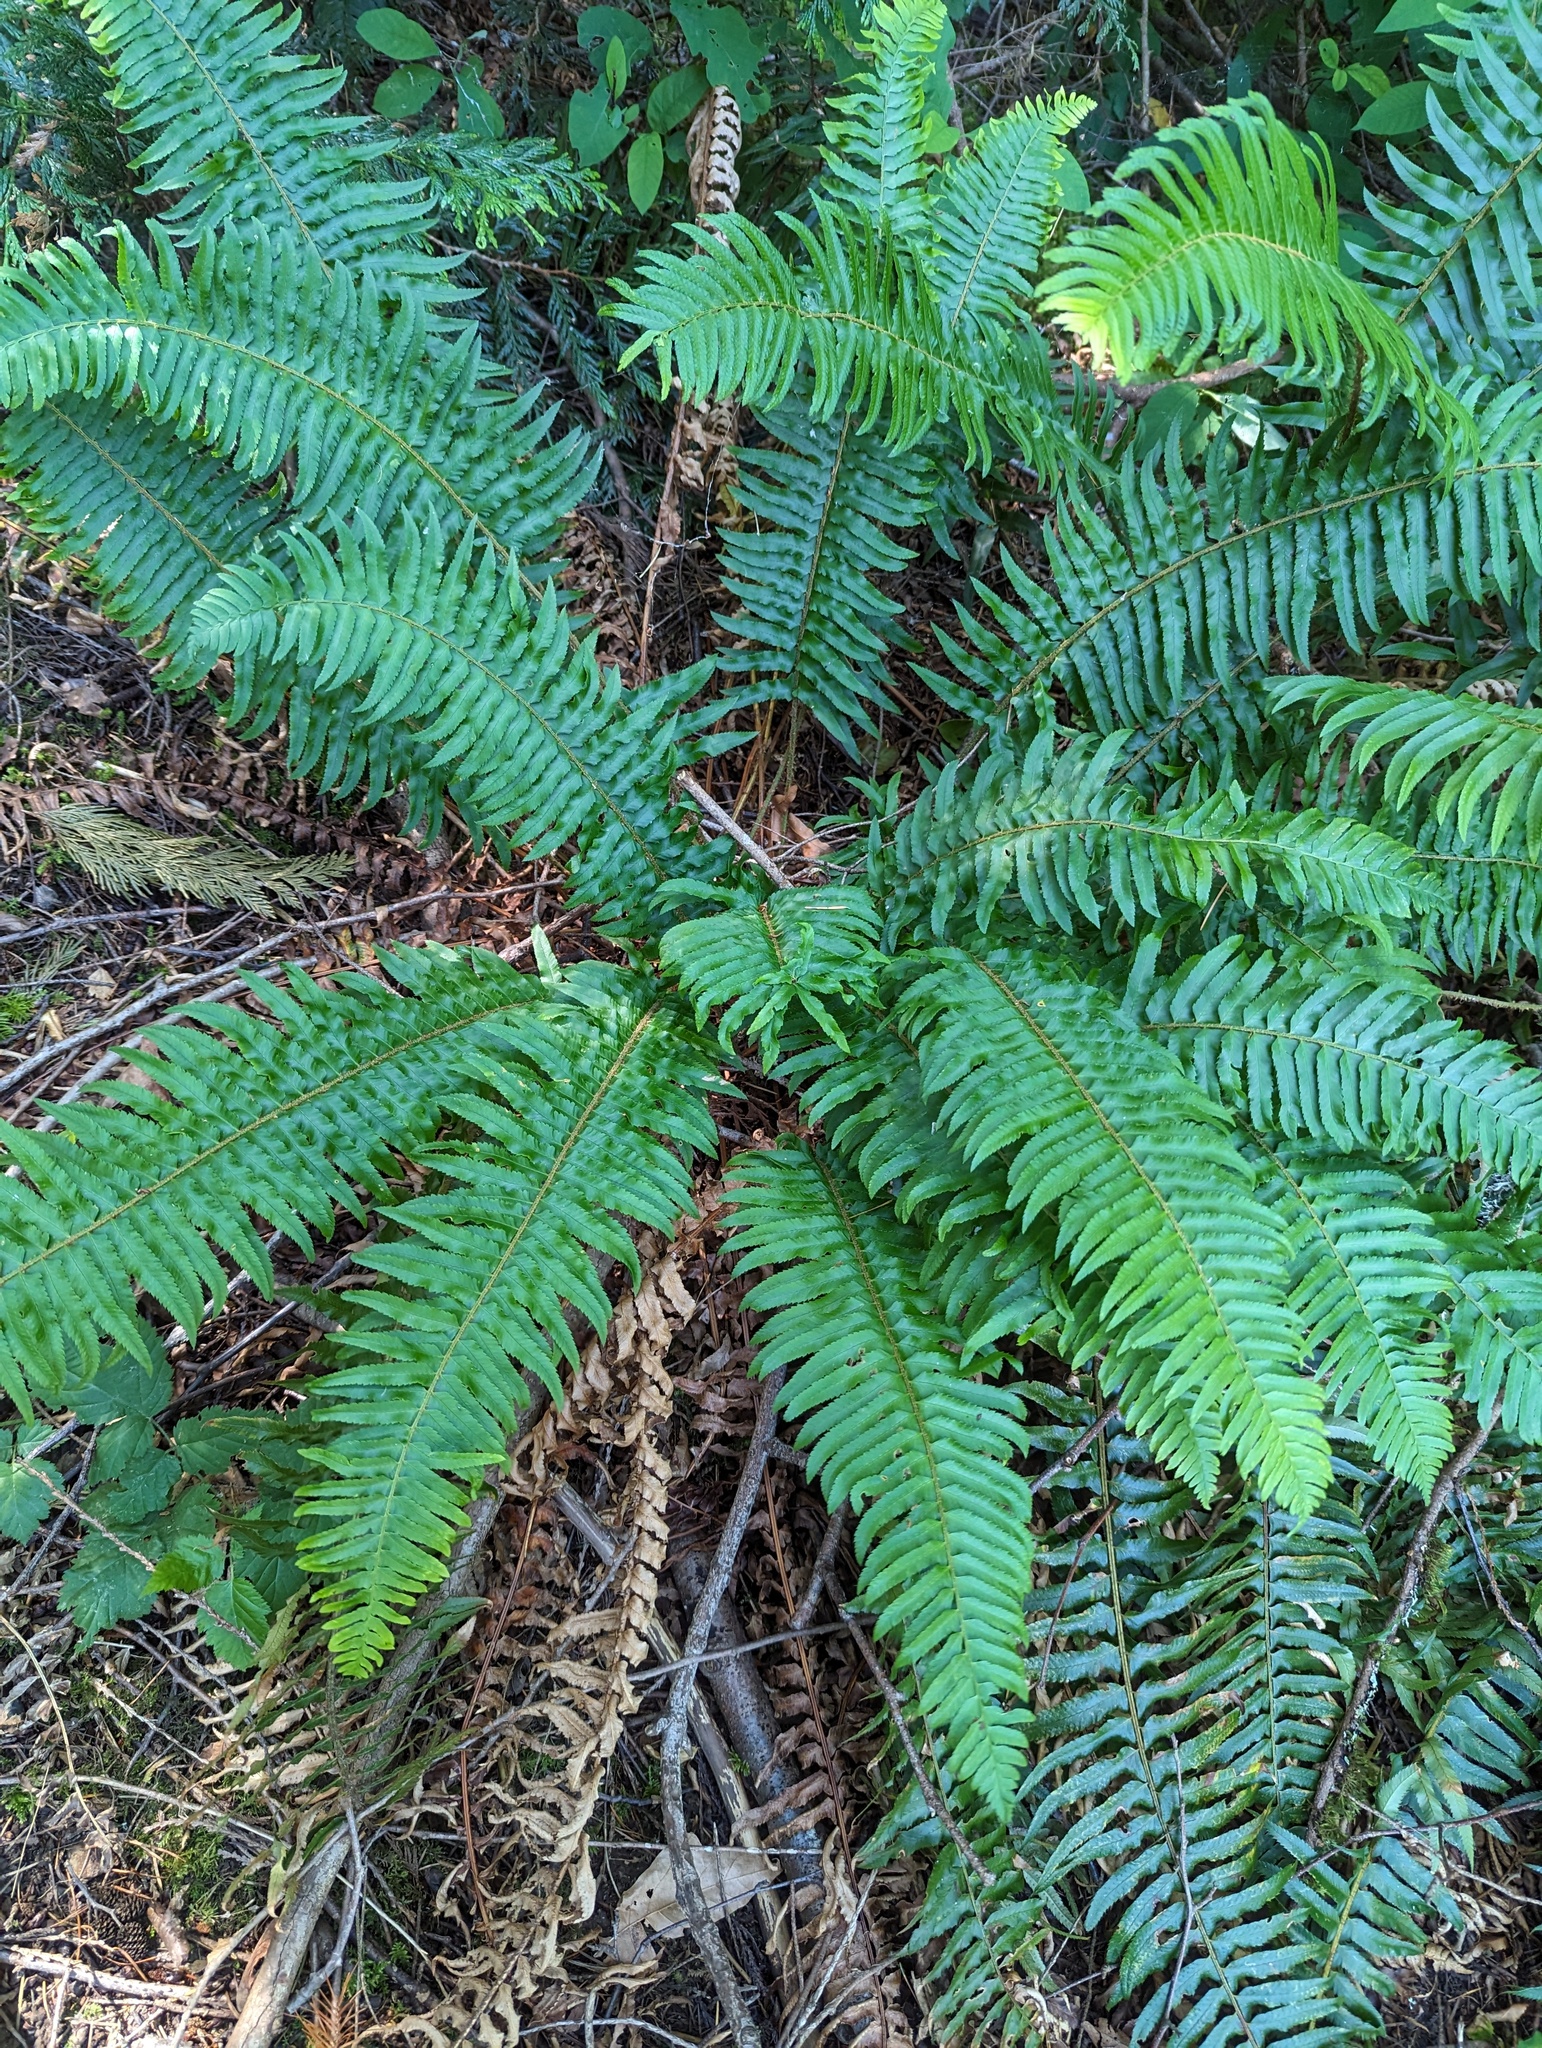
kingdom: Plantae
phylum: Tracheophyta
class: Polypodiopsida
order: Polypodiales
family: Dryopteridaceae
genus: Polystichum
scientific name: Polystichum munitum
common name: Western sword-fern
